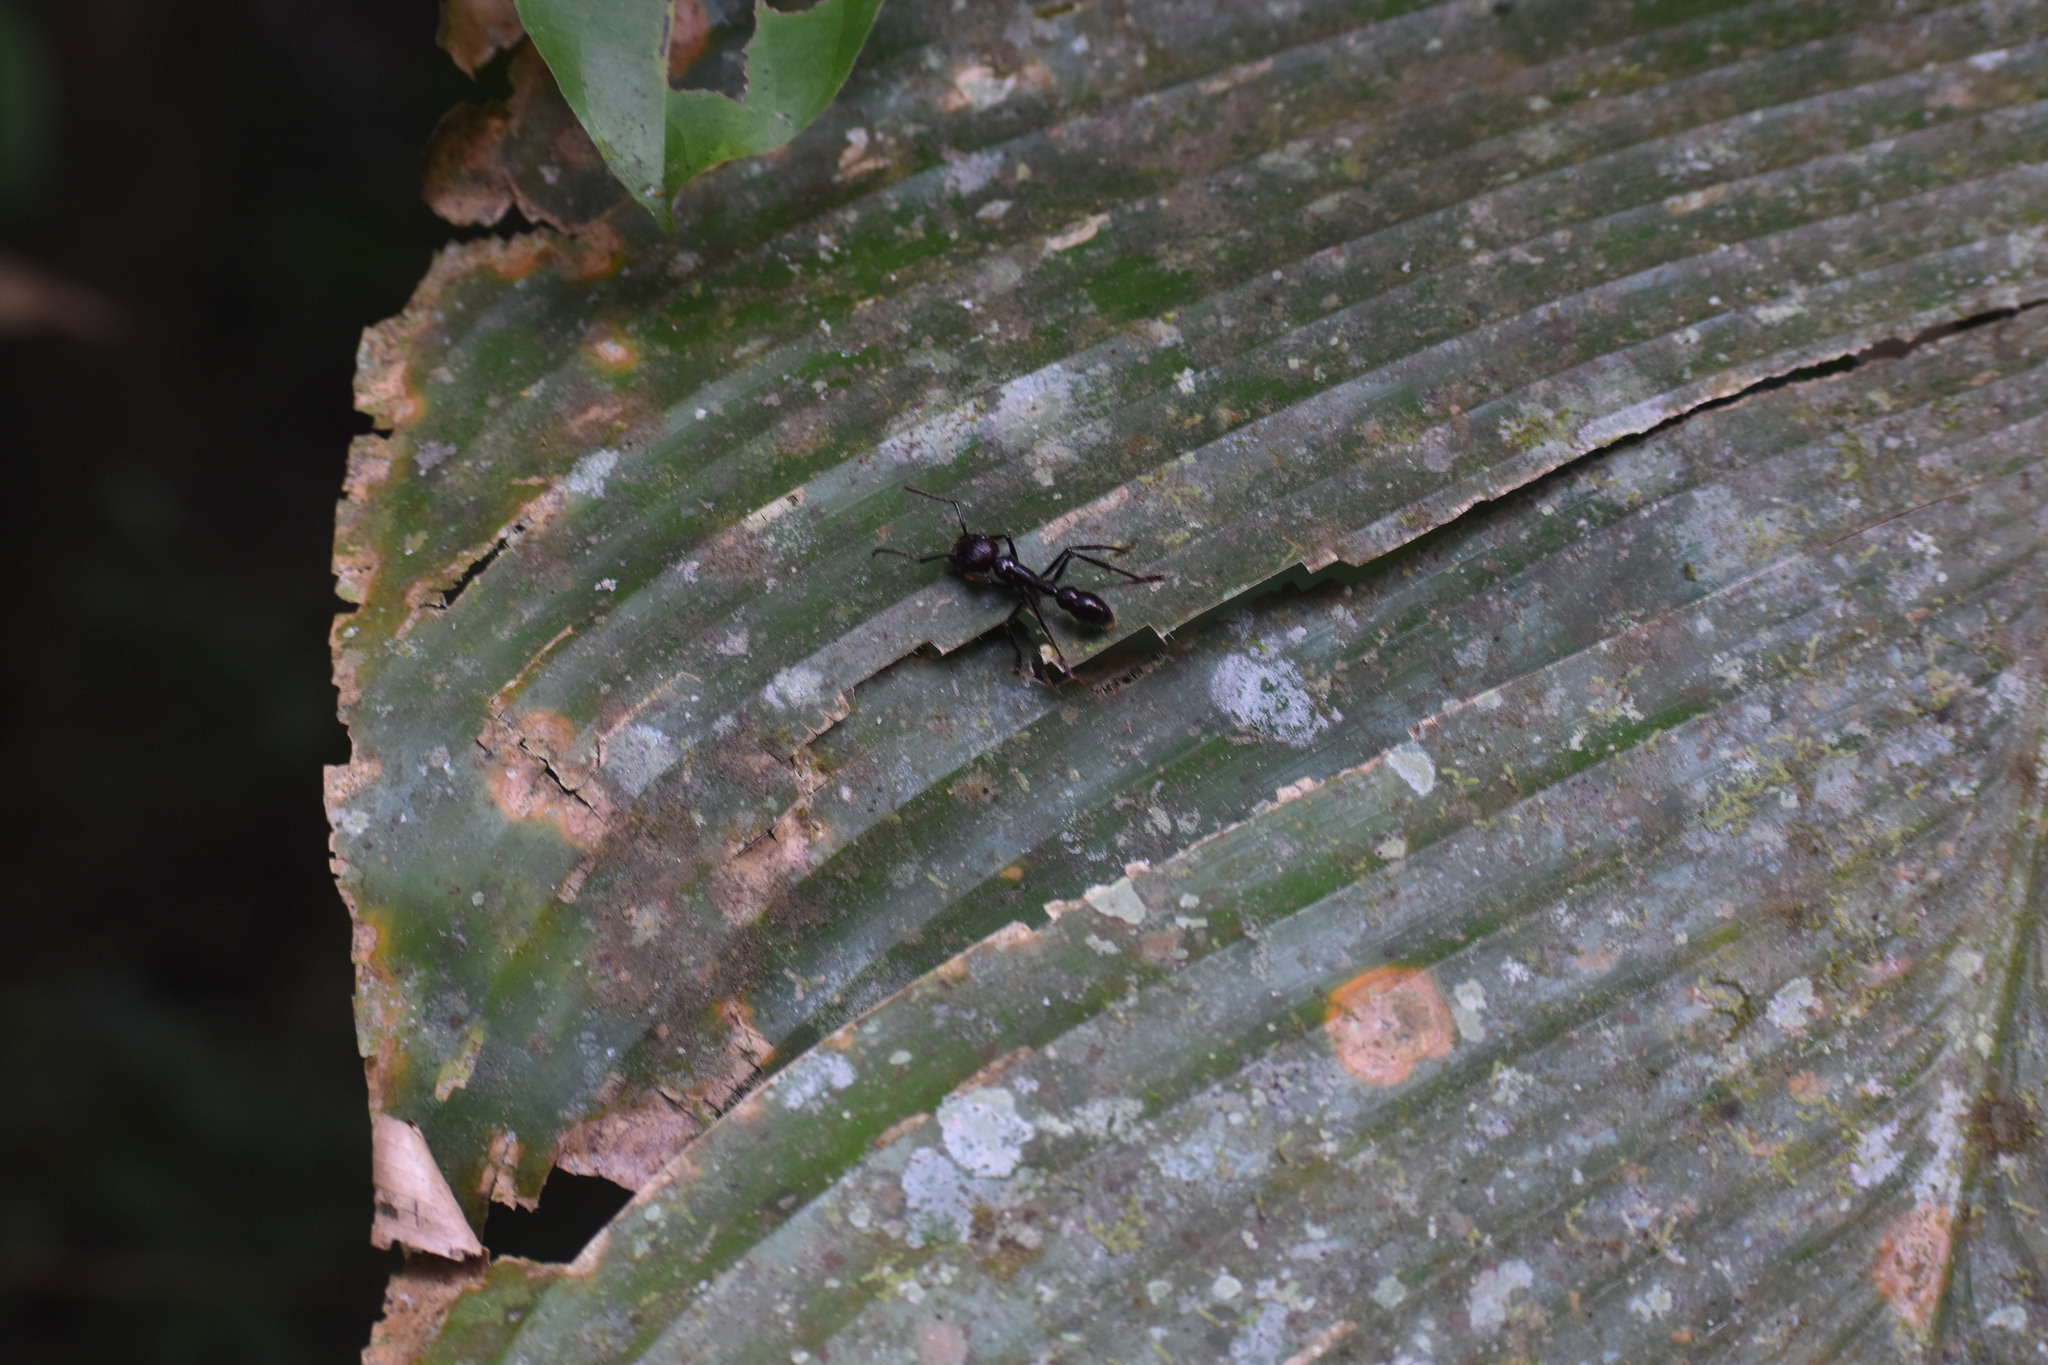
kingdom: Animalia
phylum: Arthropoda
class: Insecta
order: Hymenoptera
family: Formicidae
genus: Paraponera
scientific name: Paraponera clavata
